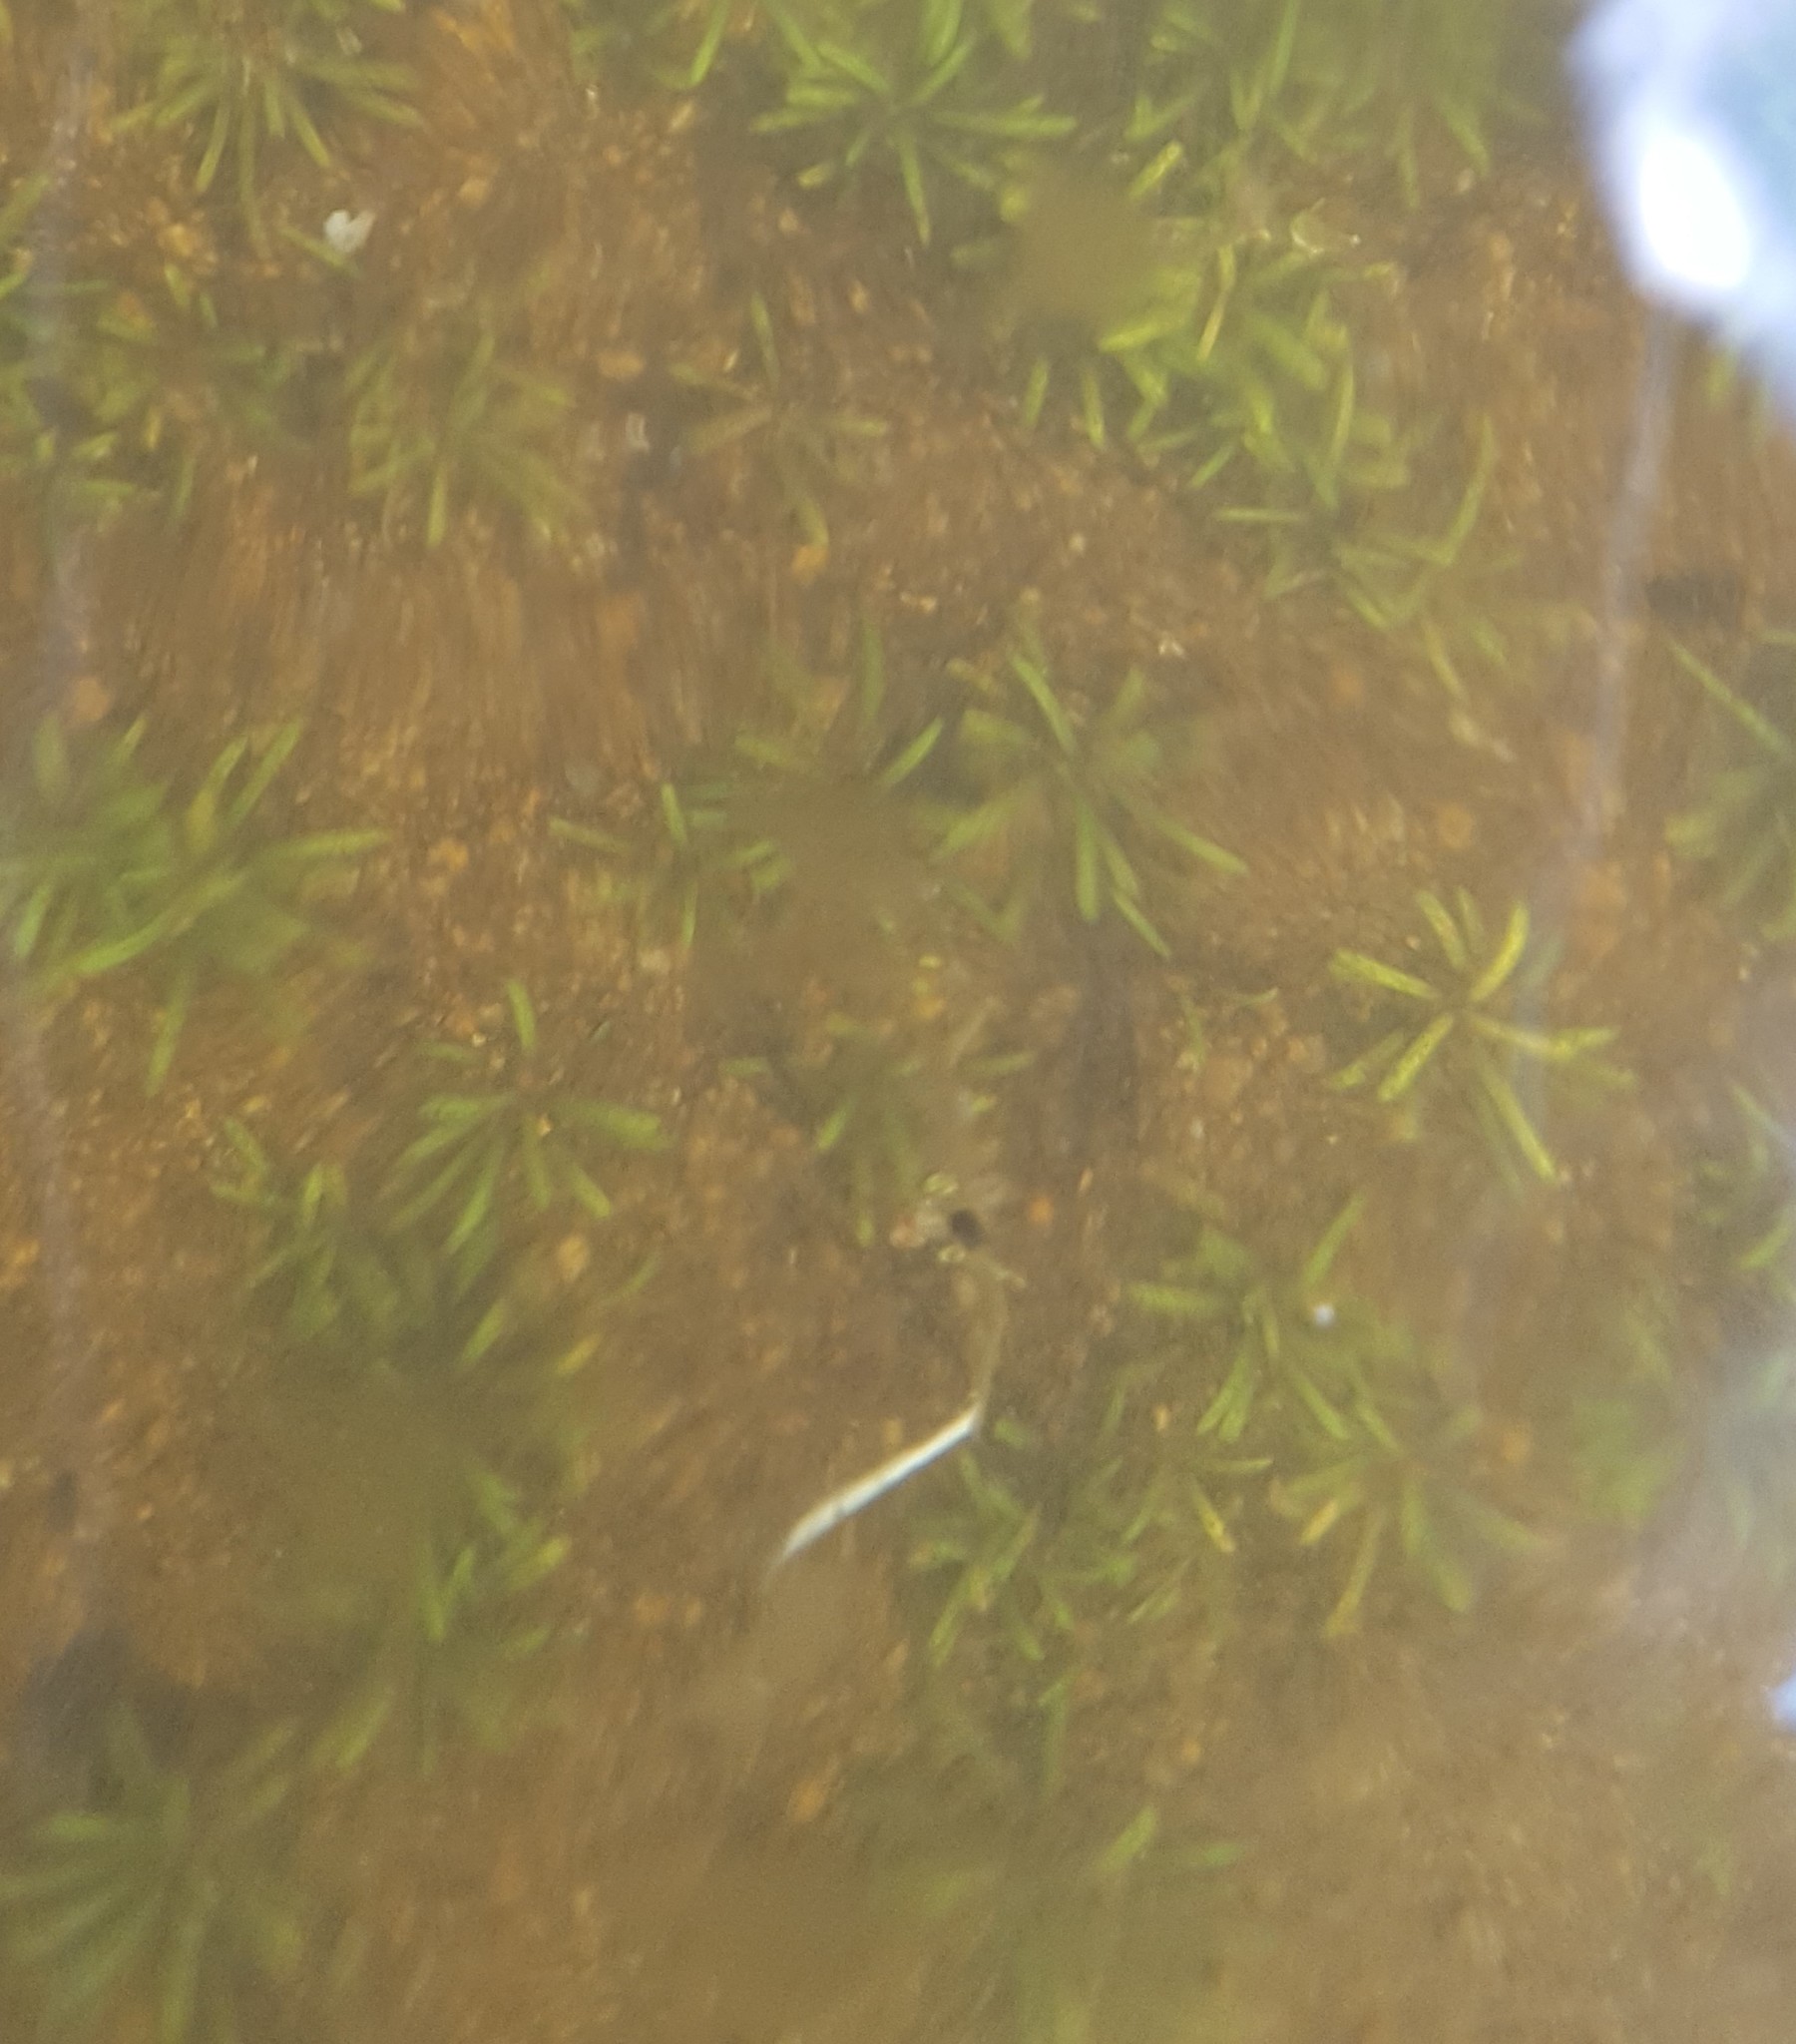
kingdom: Plantae
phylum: Tracheophyta
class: Magnoliopsida
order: Asterales
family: Campanulaceae
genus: Lobelia
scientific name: Lobelia dortmanna
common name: Water lobelia
